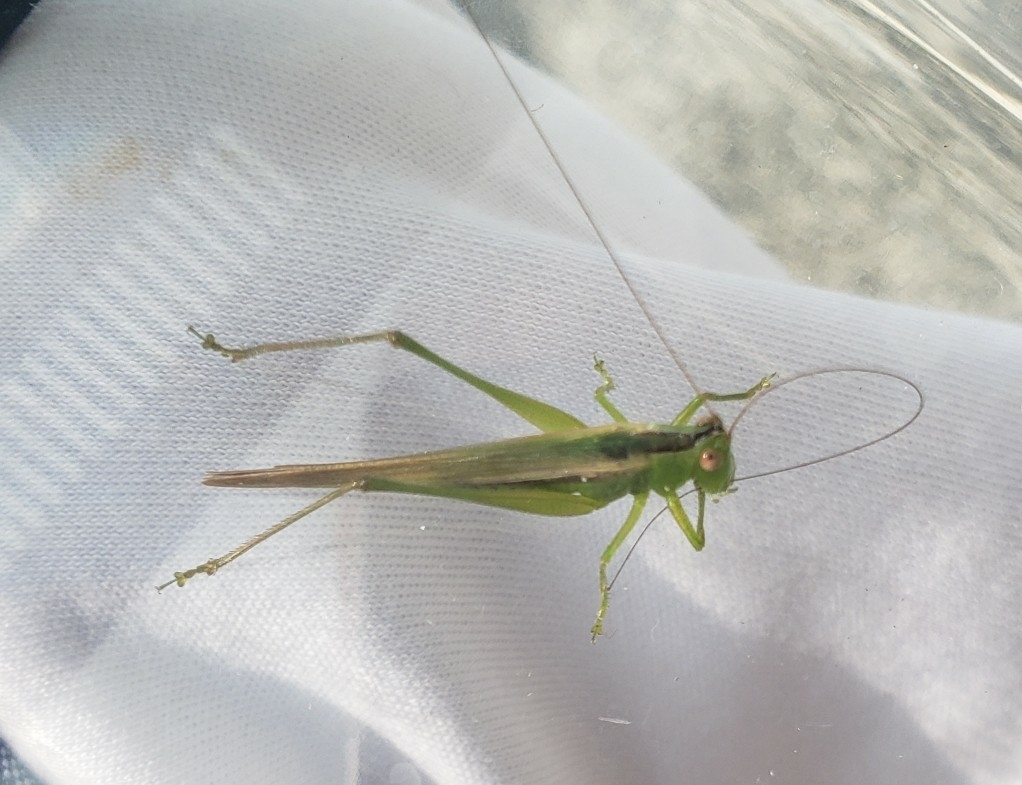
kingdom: Animalia
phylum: Arthropoda
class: Insecta
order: Orthoptera
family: Tettigoniidae
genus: Conocephalus
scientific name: Conocephalus fasciatus
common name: Slender meadow katydid
